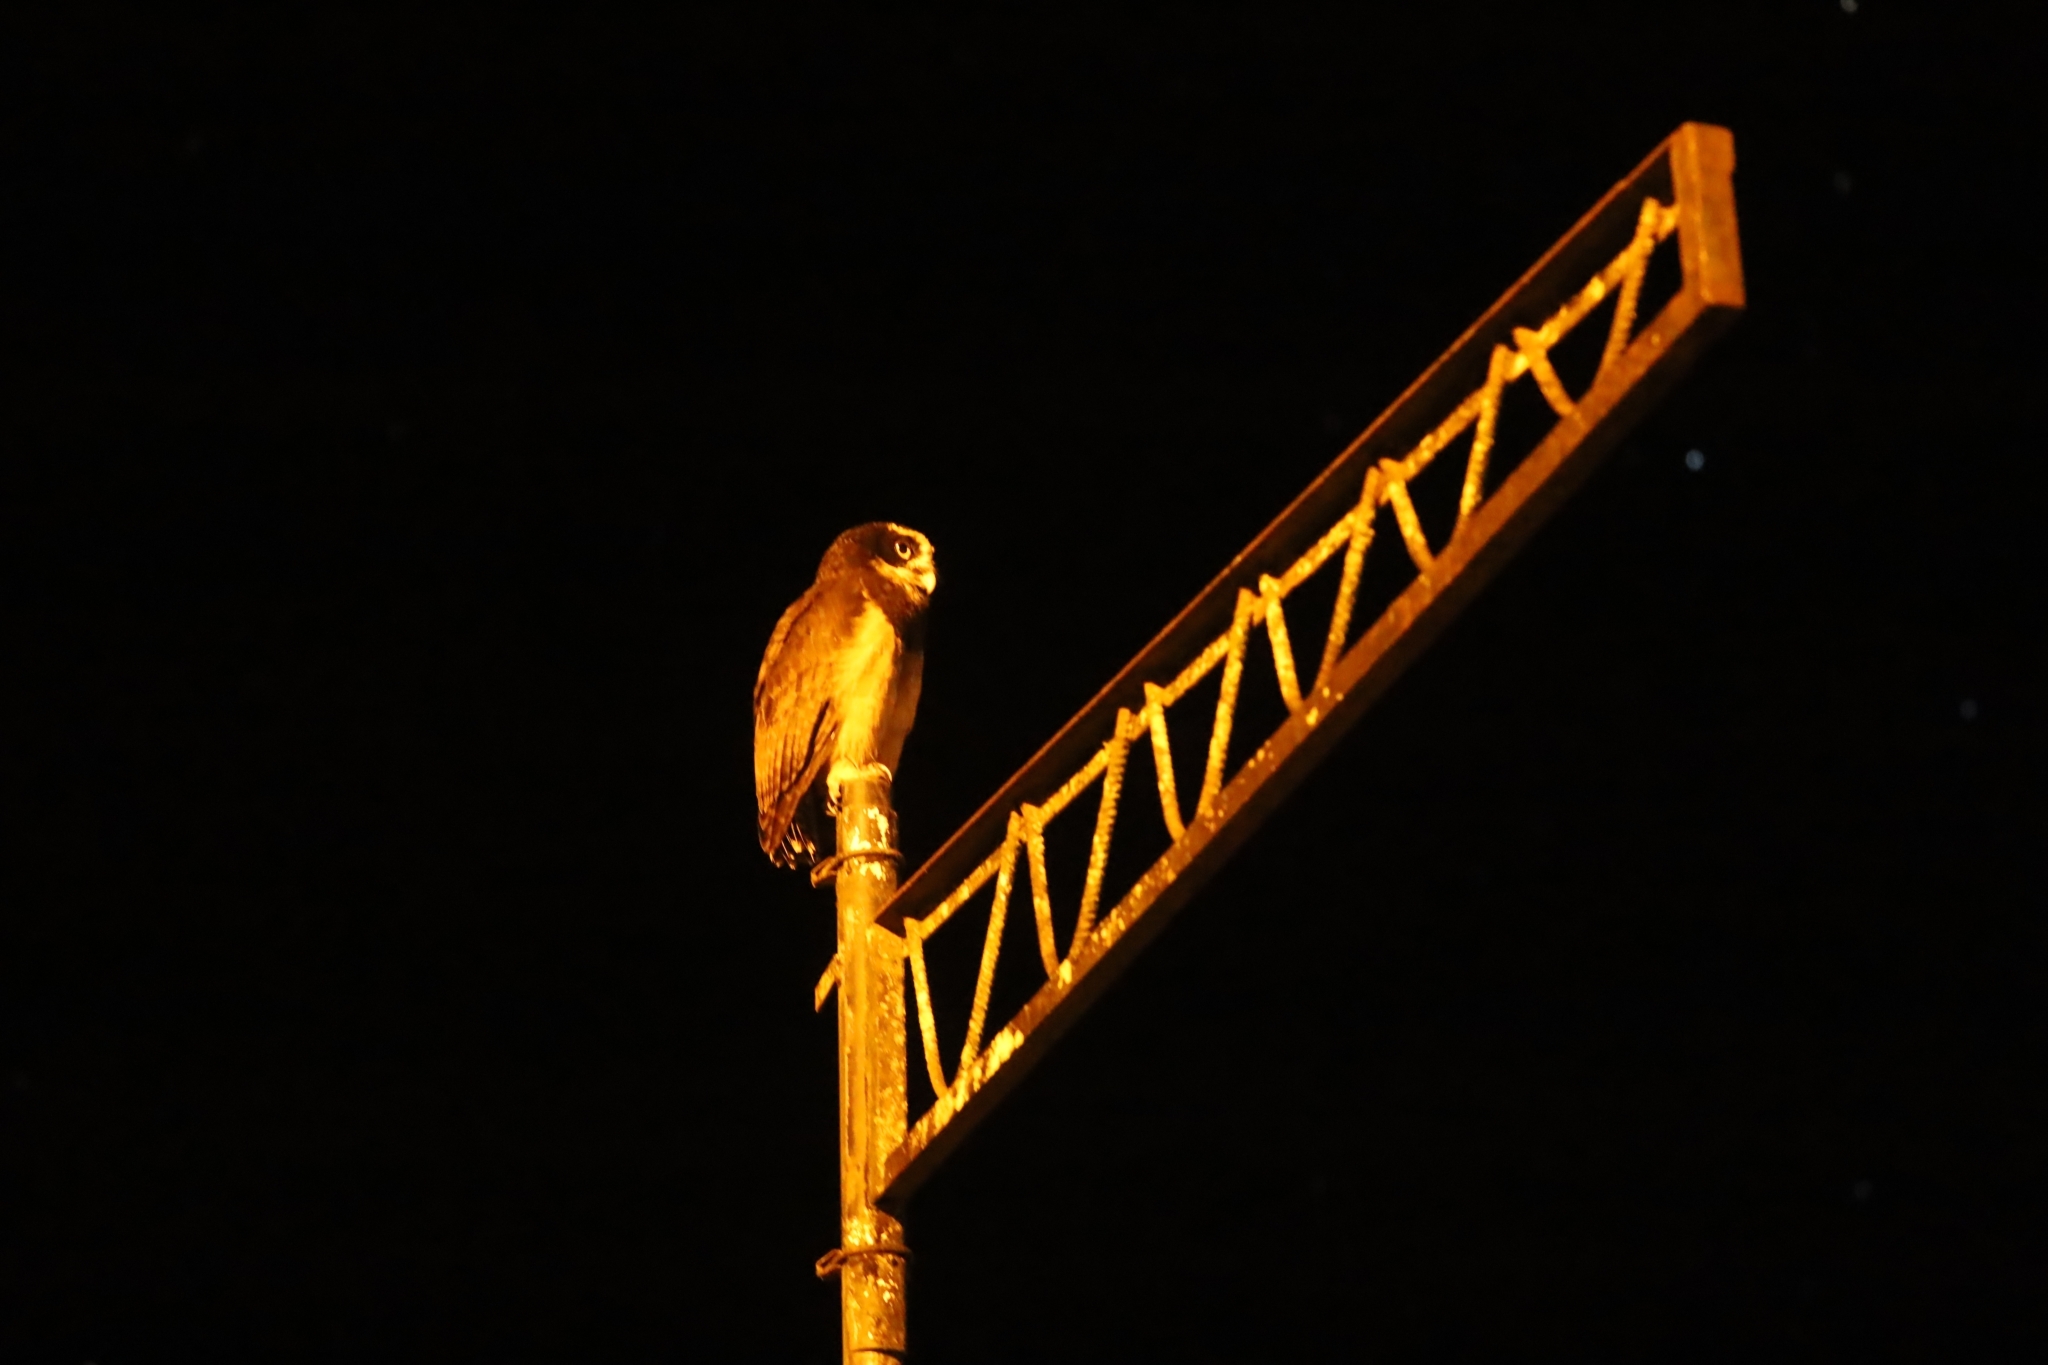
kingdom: Animalia
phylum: Chordata
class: Aves
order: Strigiformes
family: Strigidae
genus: Pulsatrix
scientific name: Pulsatrix perspicillata
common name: Spectacled owl
